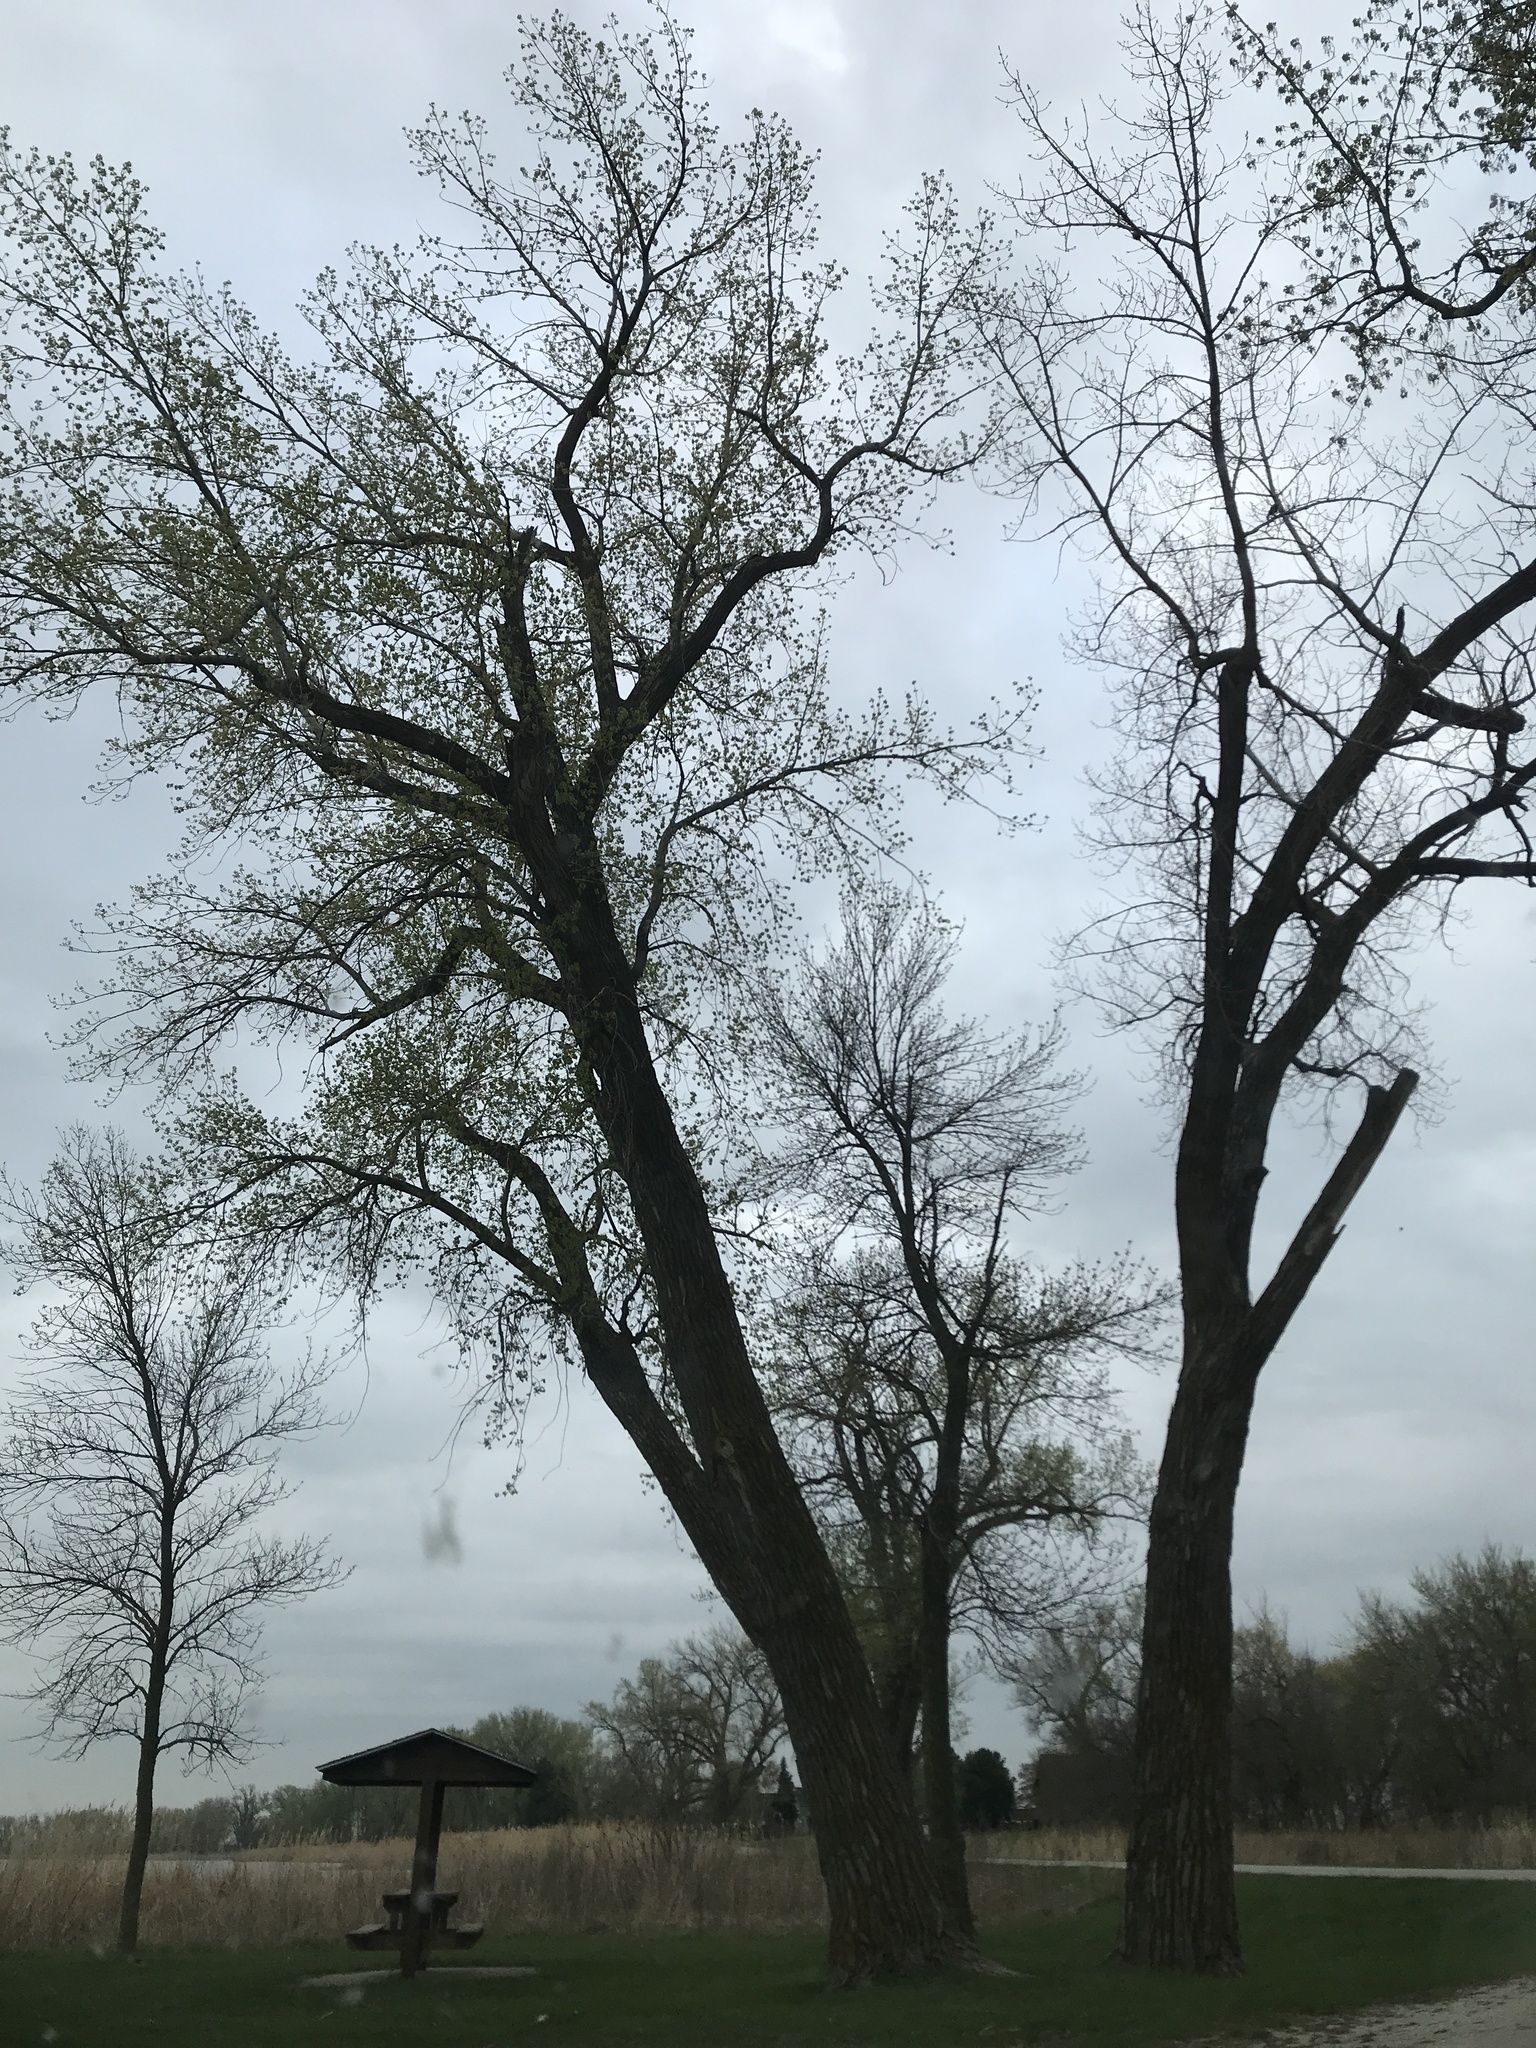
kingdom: Plantae
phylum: Tracheophyta
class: Magnoliopsida
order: Malpighiales
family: Salicaceae
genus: Populus
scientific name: Populus deltoides
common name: Eastern cottonwood
